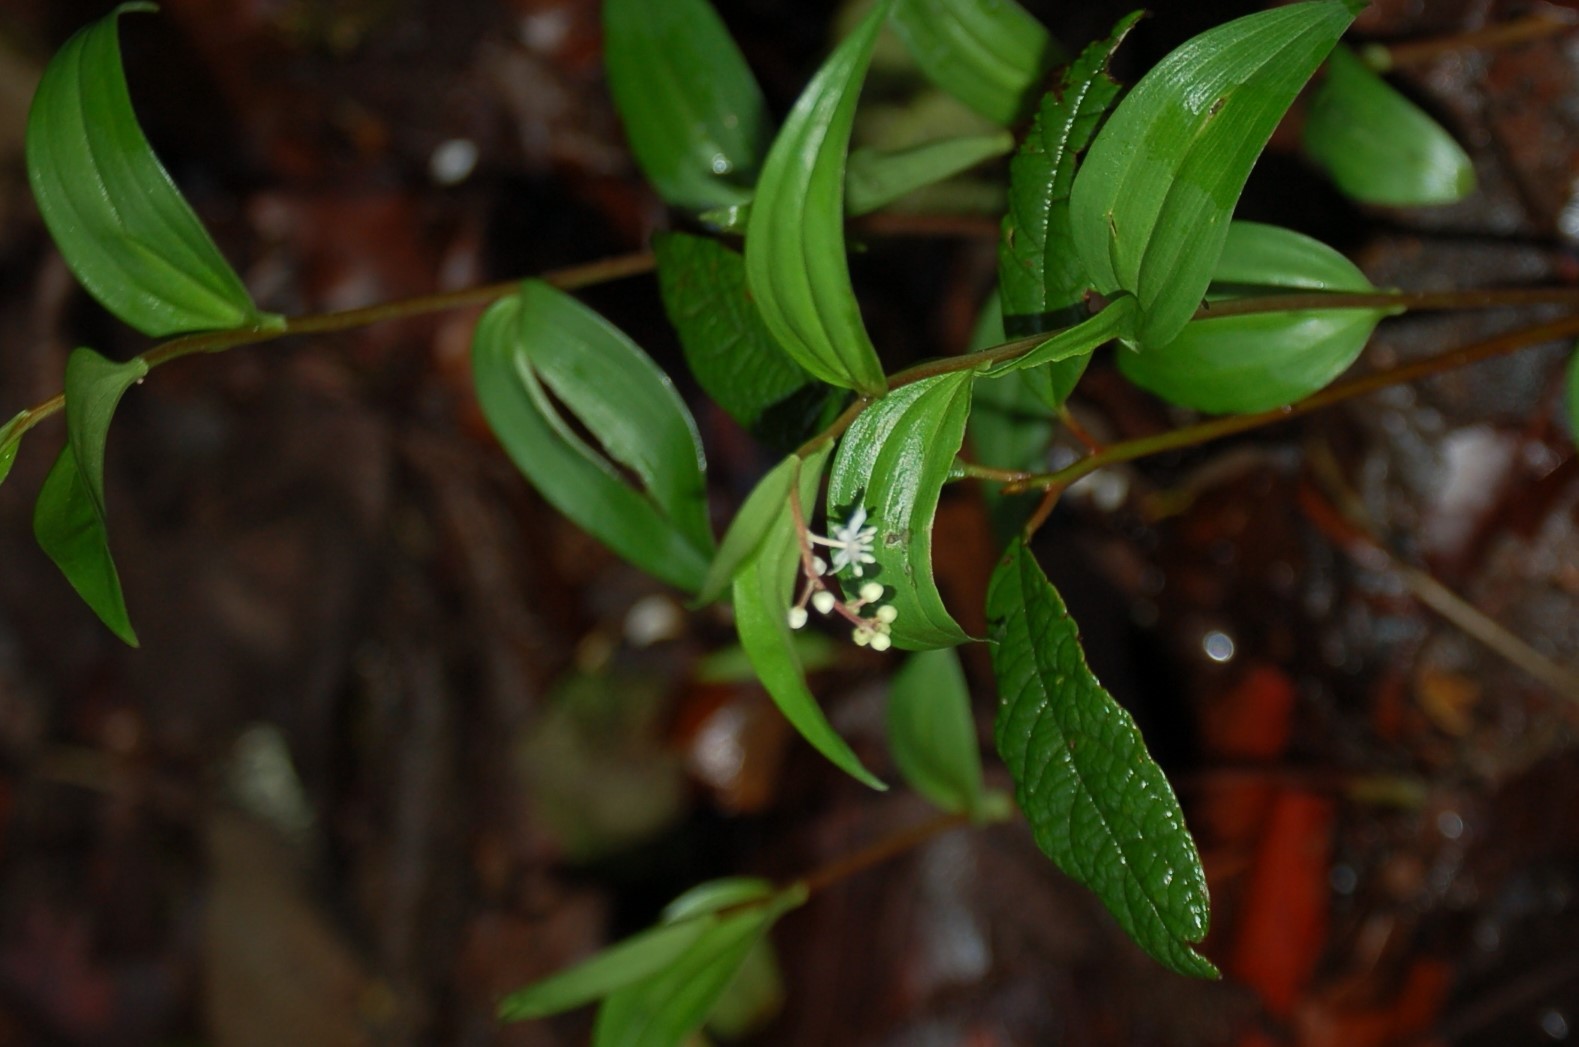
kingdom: Plantae
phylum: Tracheophyta
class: Liliopsida
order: Asparagales
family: Asparagaceae
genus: Maianthemum
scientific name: Maianthemum scilloideum
